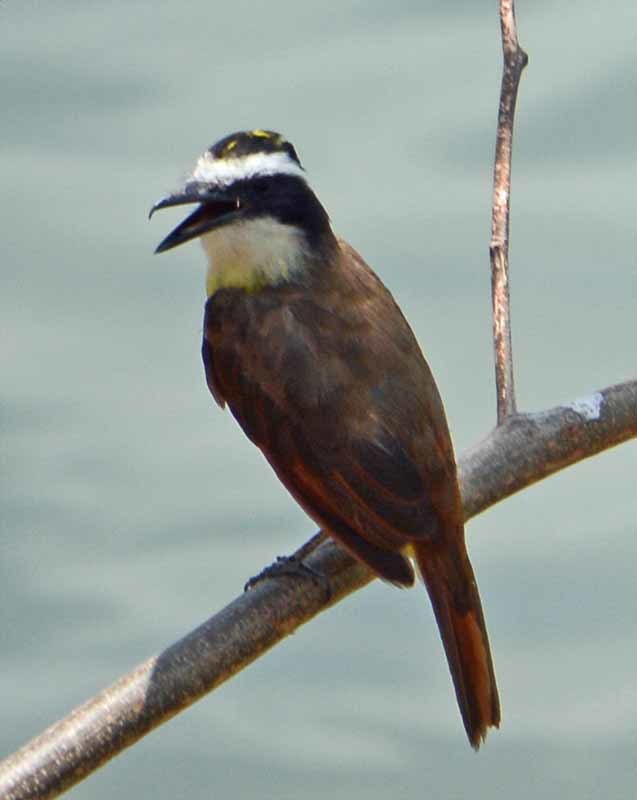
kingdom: Animalia
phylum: Chordata
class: Aves
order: Passeriformes
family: Tyrannidae
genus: Pitangus
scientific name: Pitangus sulphuratus
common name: Great kiskadee
